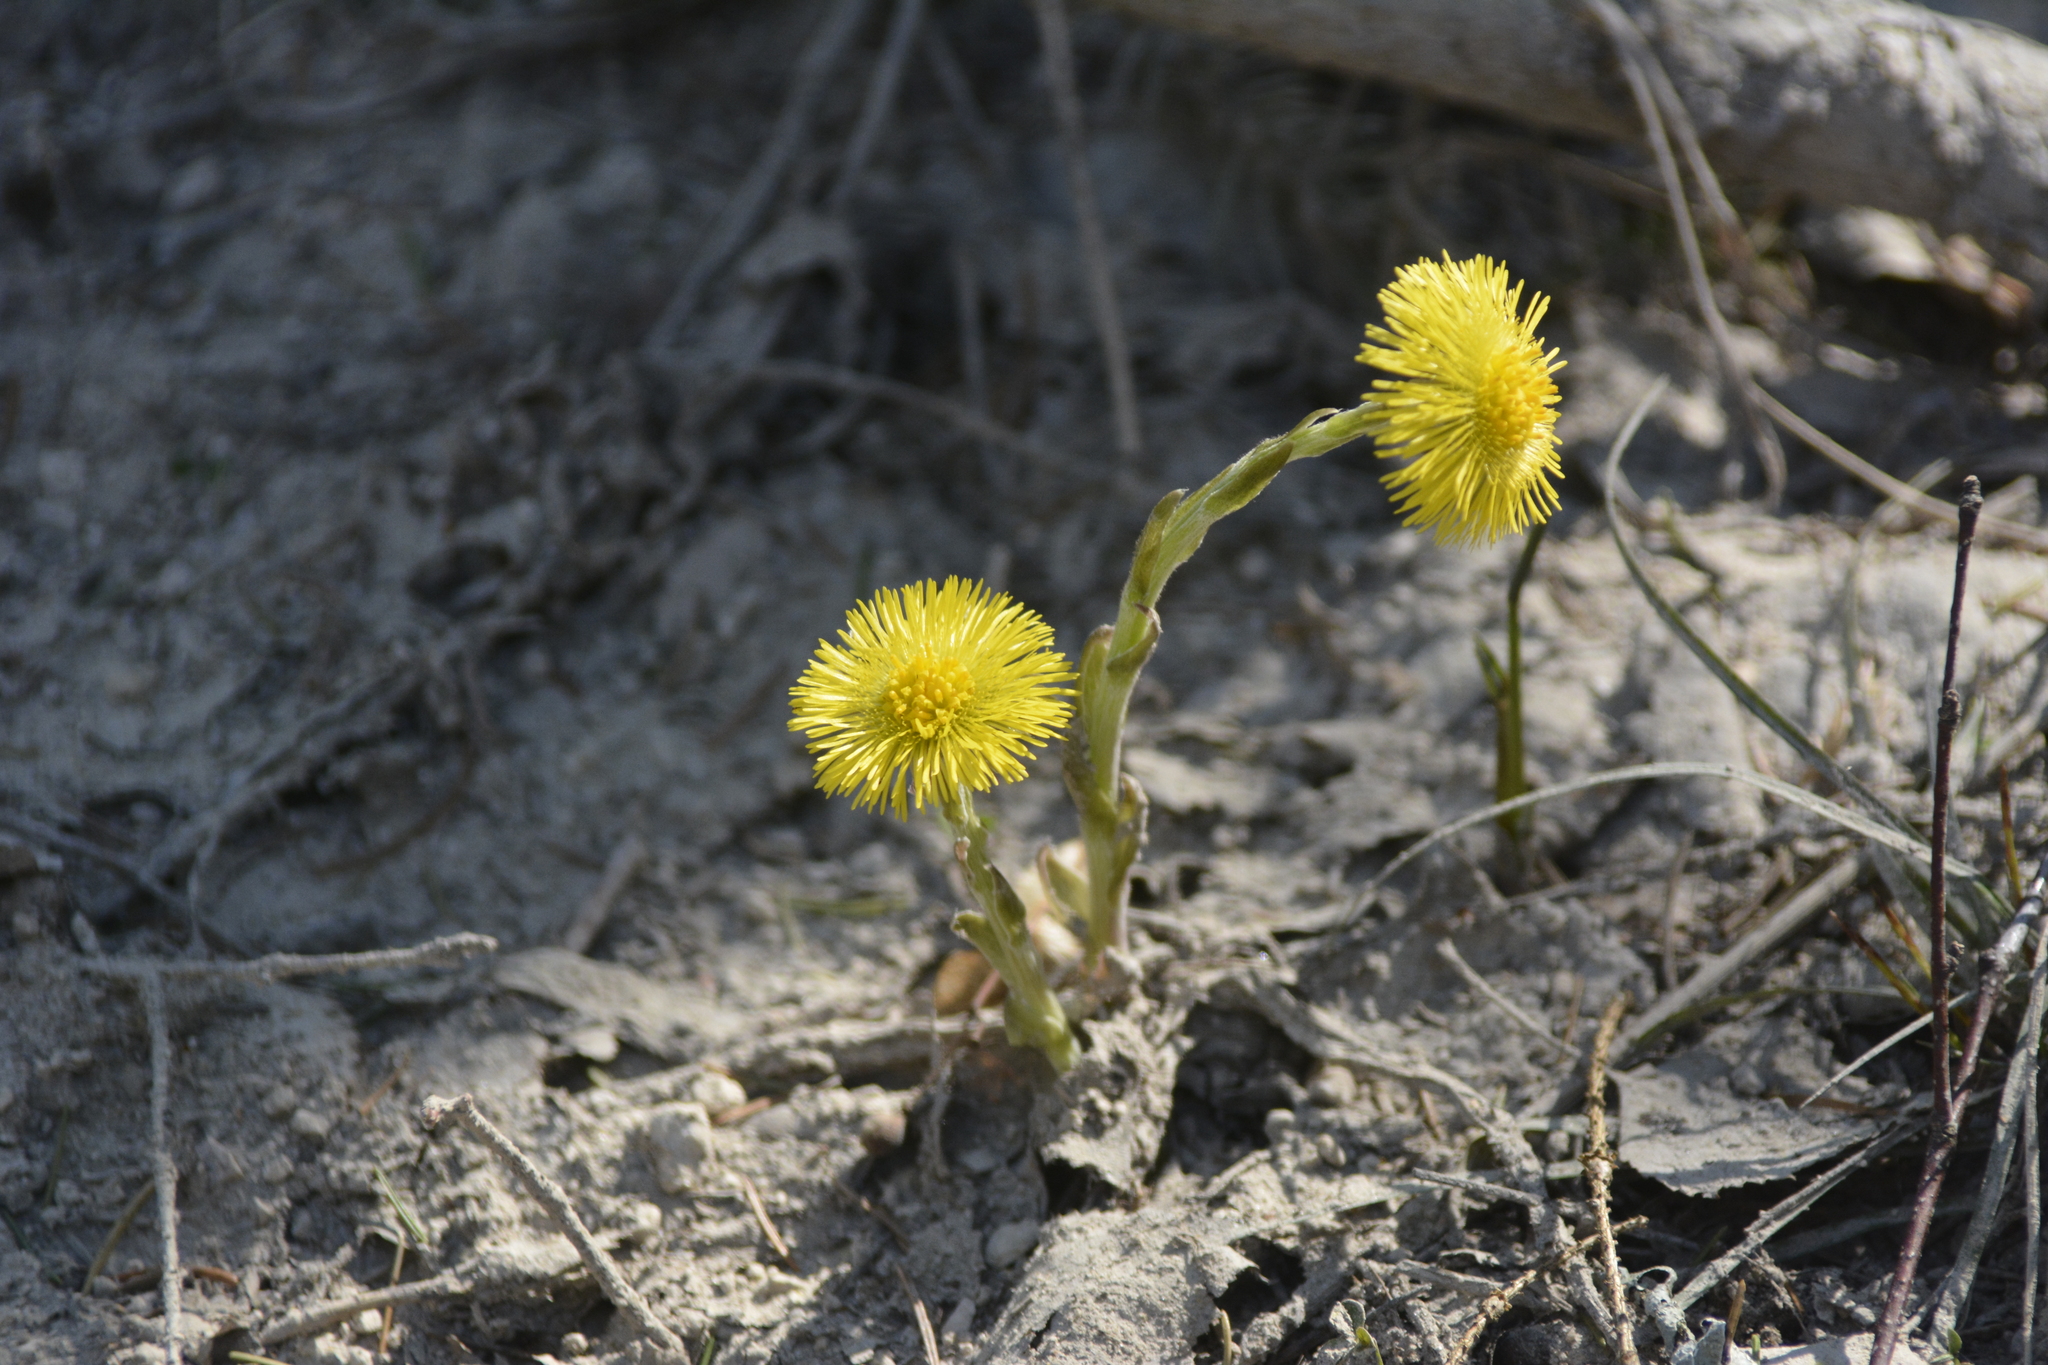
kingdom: Plantae
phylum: Tracheophyta
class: Magnoliopsida
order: Asterales
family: Asteraceae
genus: Tussilago
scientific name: Tussilago farfara
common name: Coltsfoot
